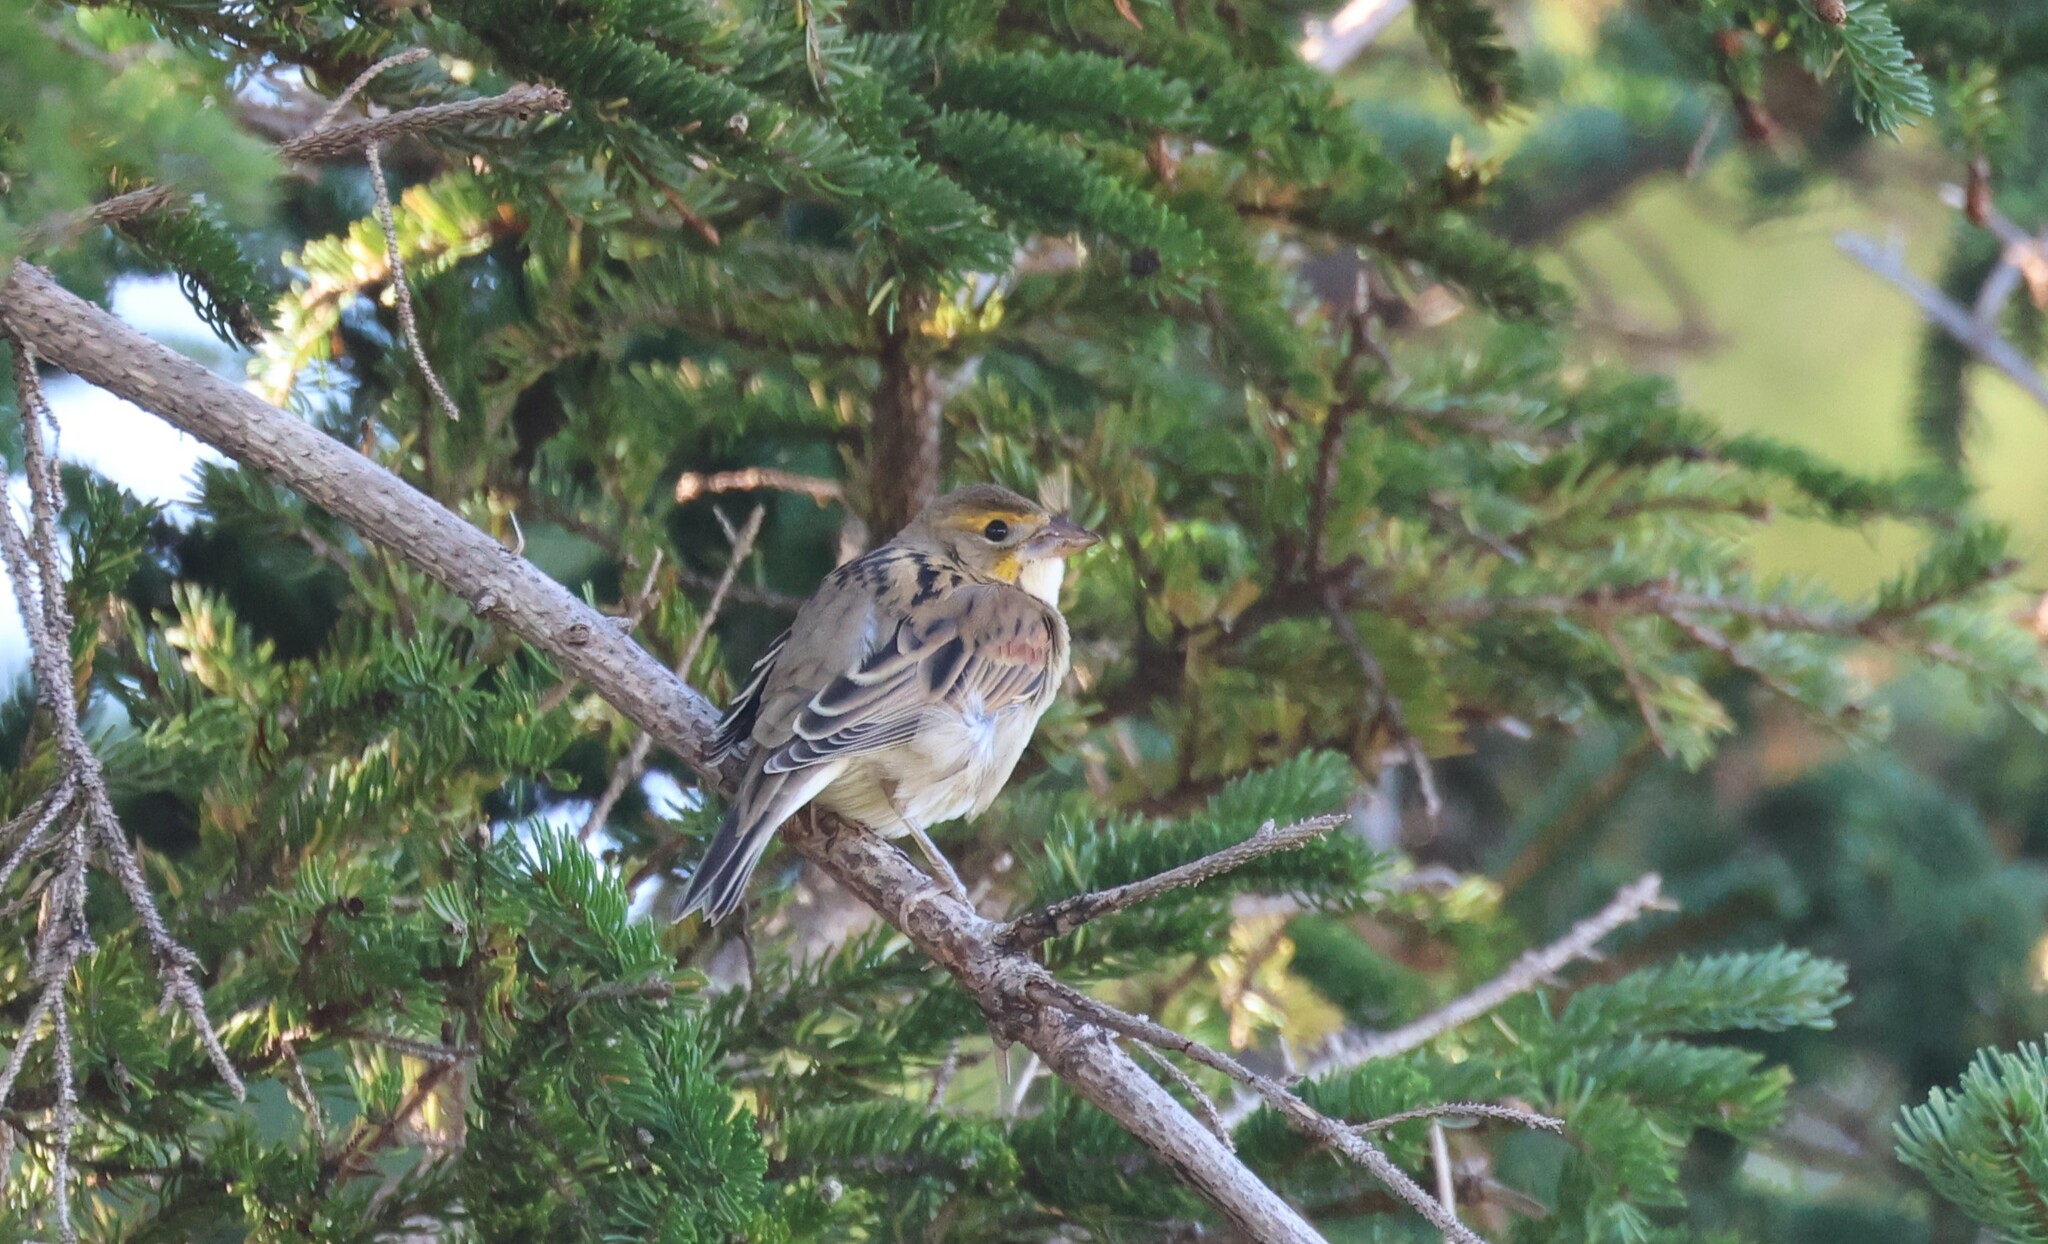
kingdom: Animalia
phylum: Chordata
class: Aves
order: Passeriformes
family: Cardinalidae
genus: Spiza
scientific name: Spiza americana
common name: Dickcissel
